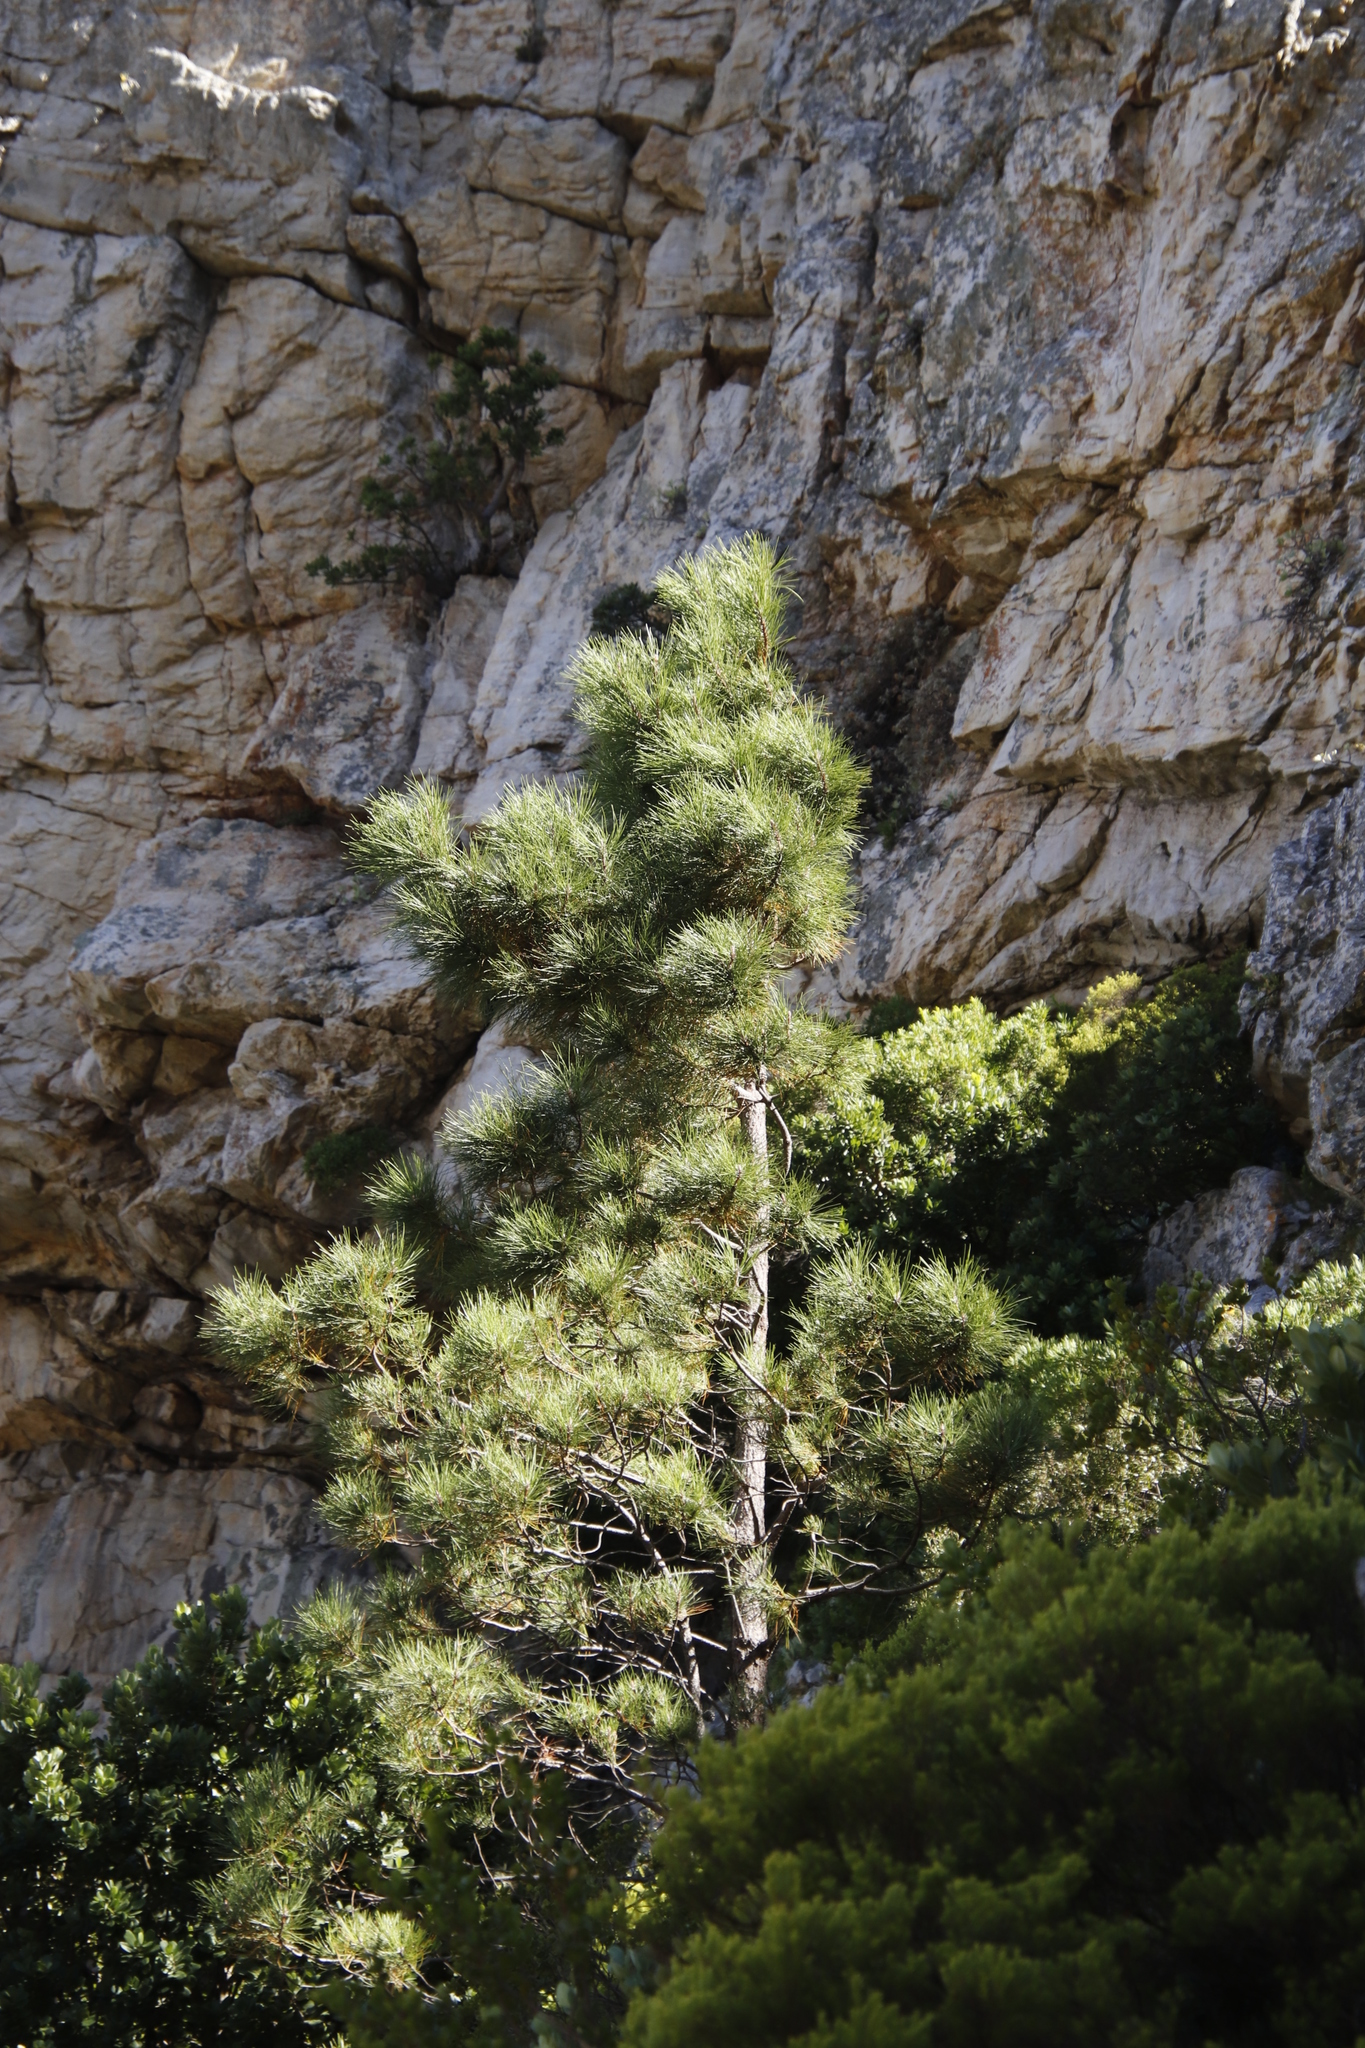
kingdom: Plantae
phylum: Tracheophyta
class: Pinopsida
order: Pinales
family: Pinaceae
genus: Pinus
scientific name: Pinus pinaster
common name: Maritime pine
